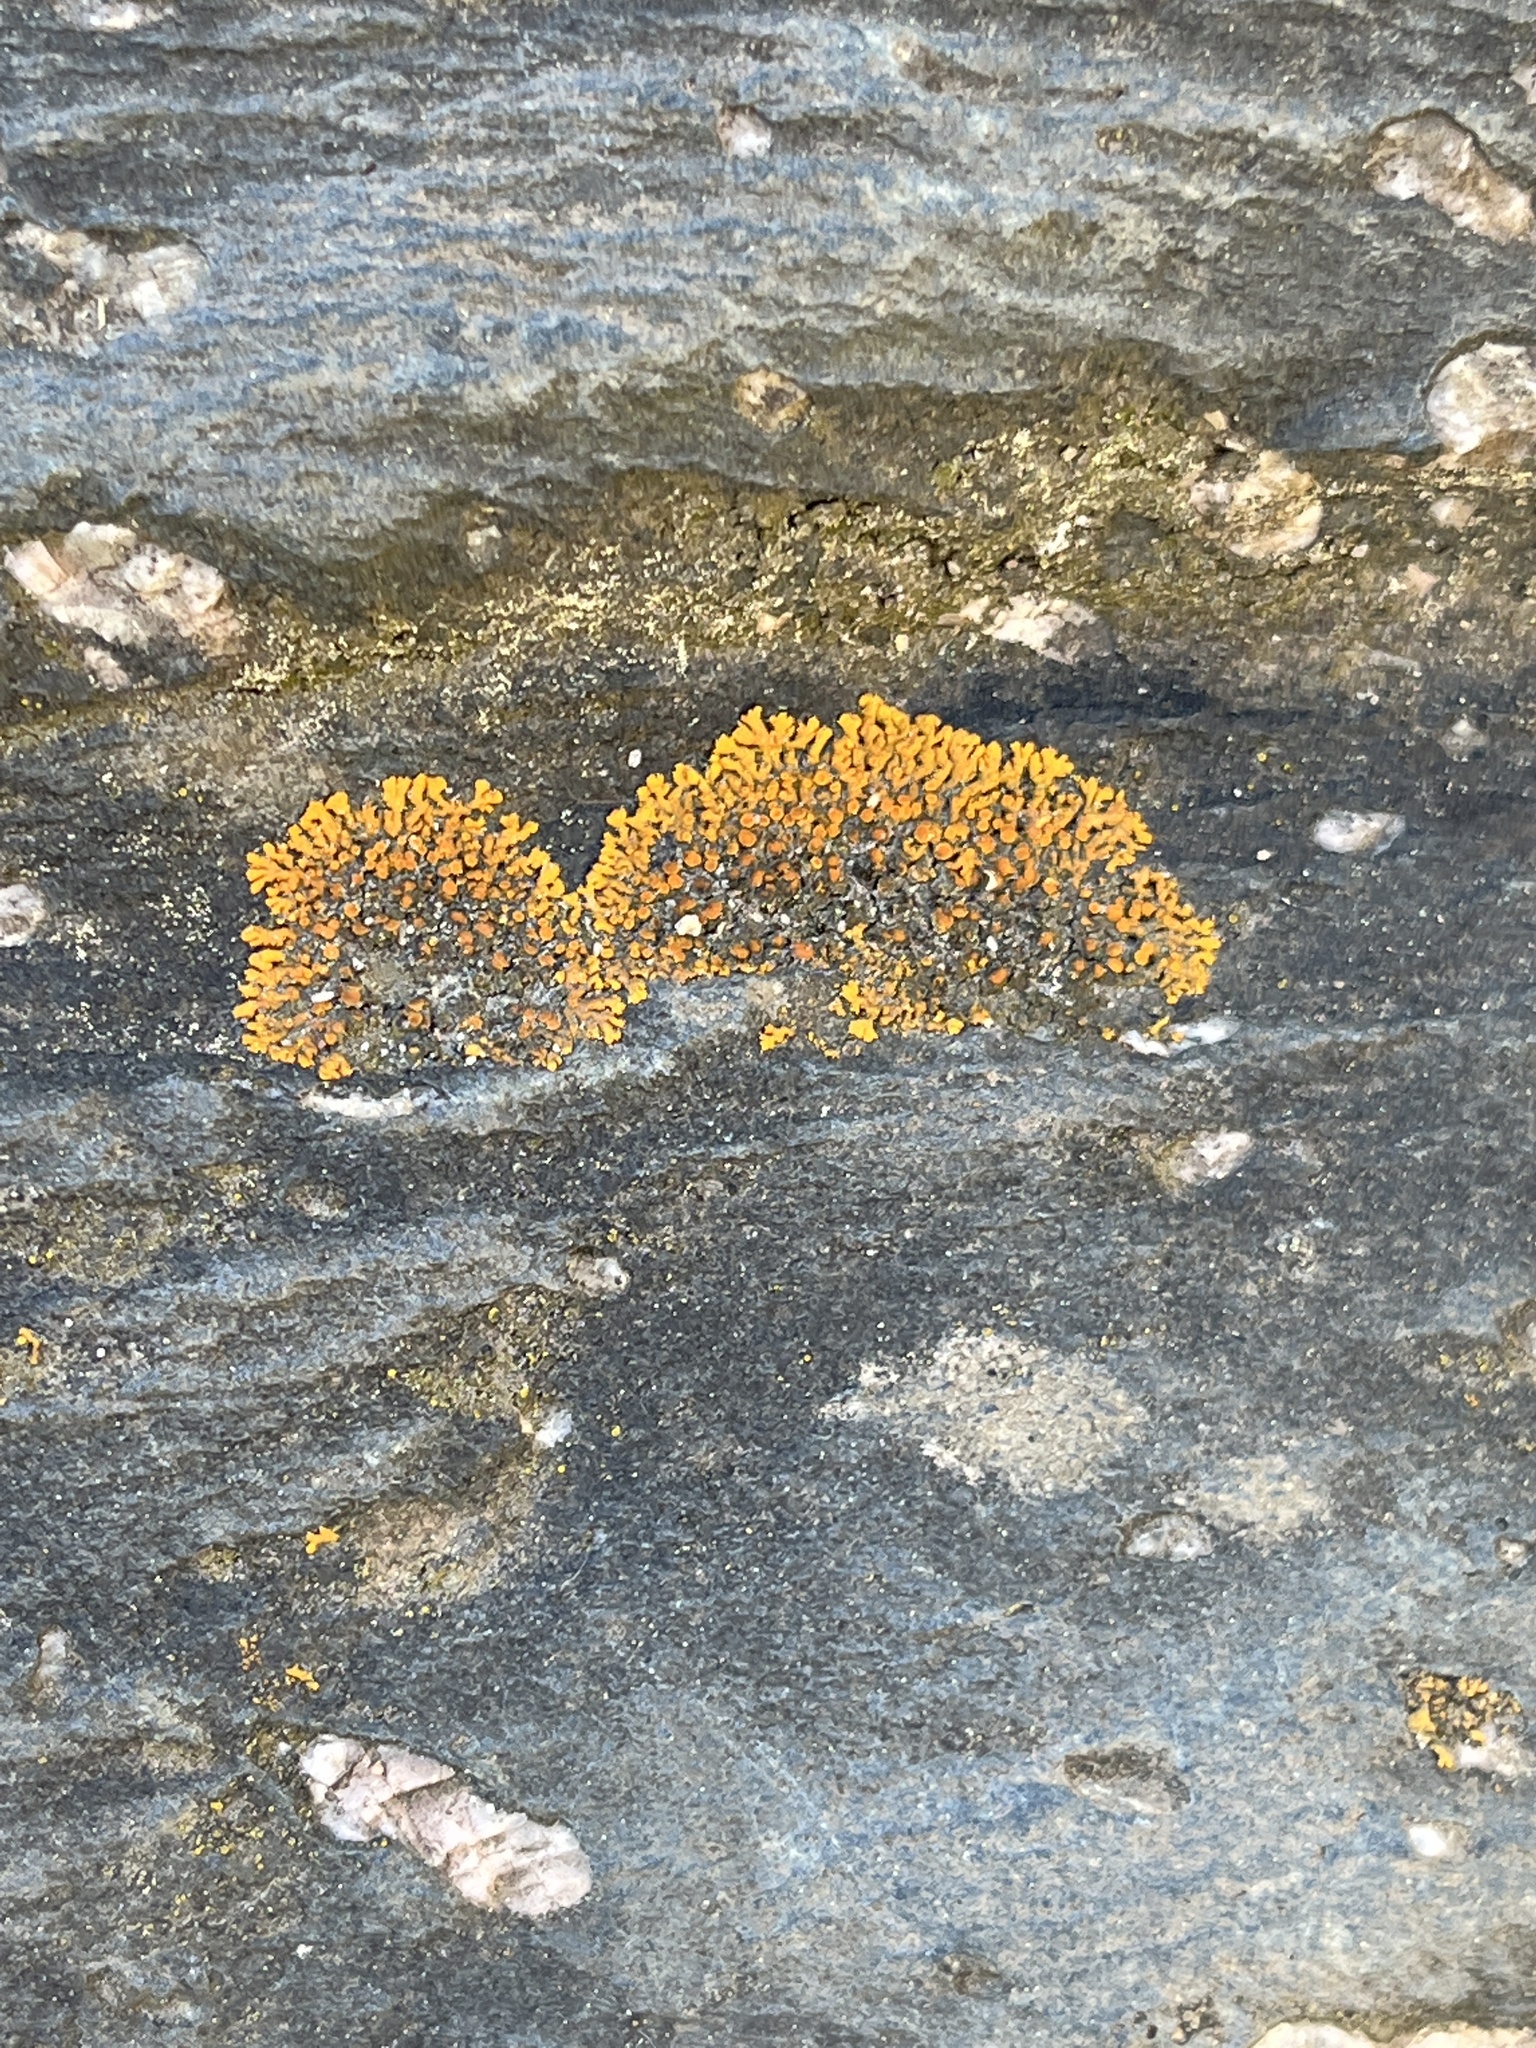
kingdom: Fungi
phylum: Ascomycota
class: Lecanoromycetes
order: Teloschistales
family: Teloschistaceae
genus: Xanthoria
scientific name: Xanthoria elegans
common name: Elegant sunburst lichen
